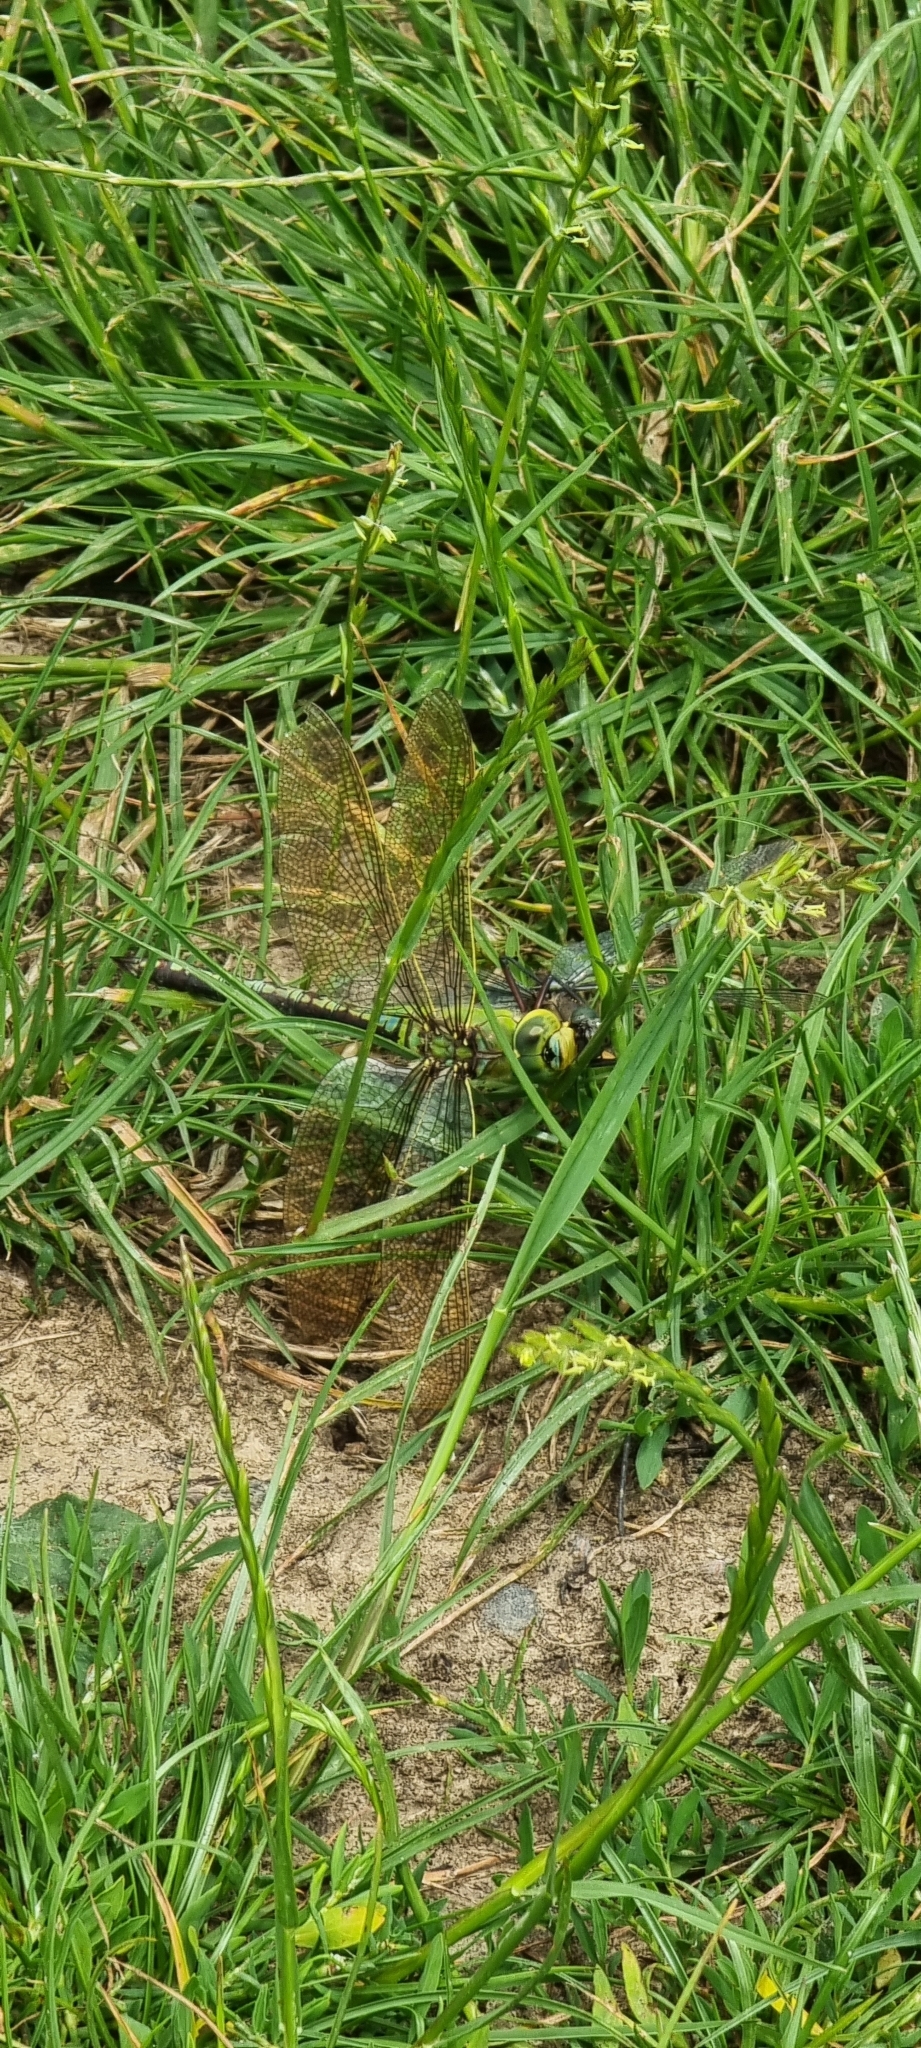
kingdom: Animalia
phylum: Arthropoda
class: Insecta
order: Odonata
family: Aeshnidae
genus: Anax
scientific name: Anax imperator
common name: Emperor dragonfly
